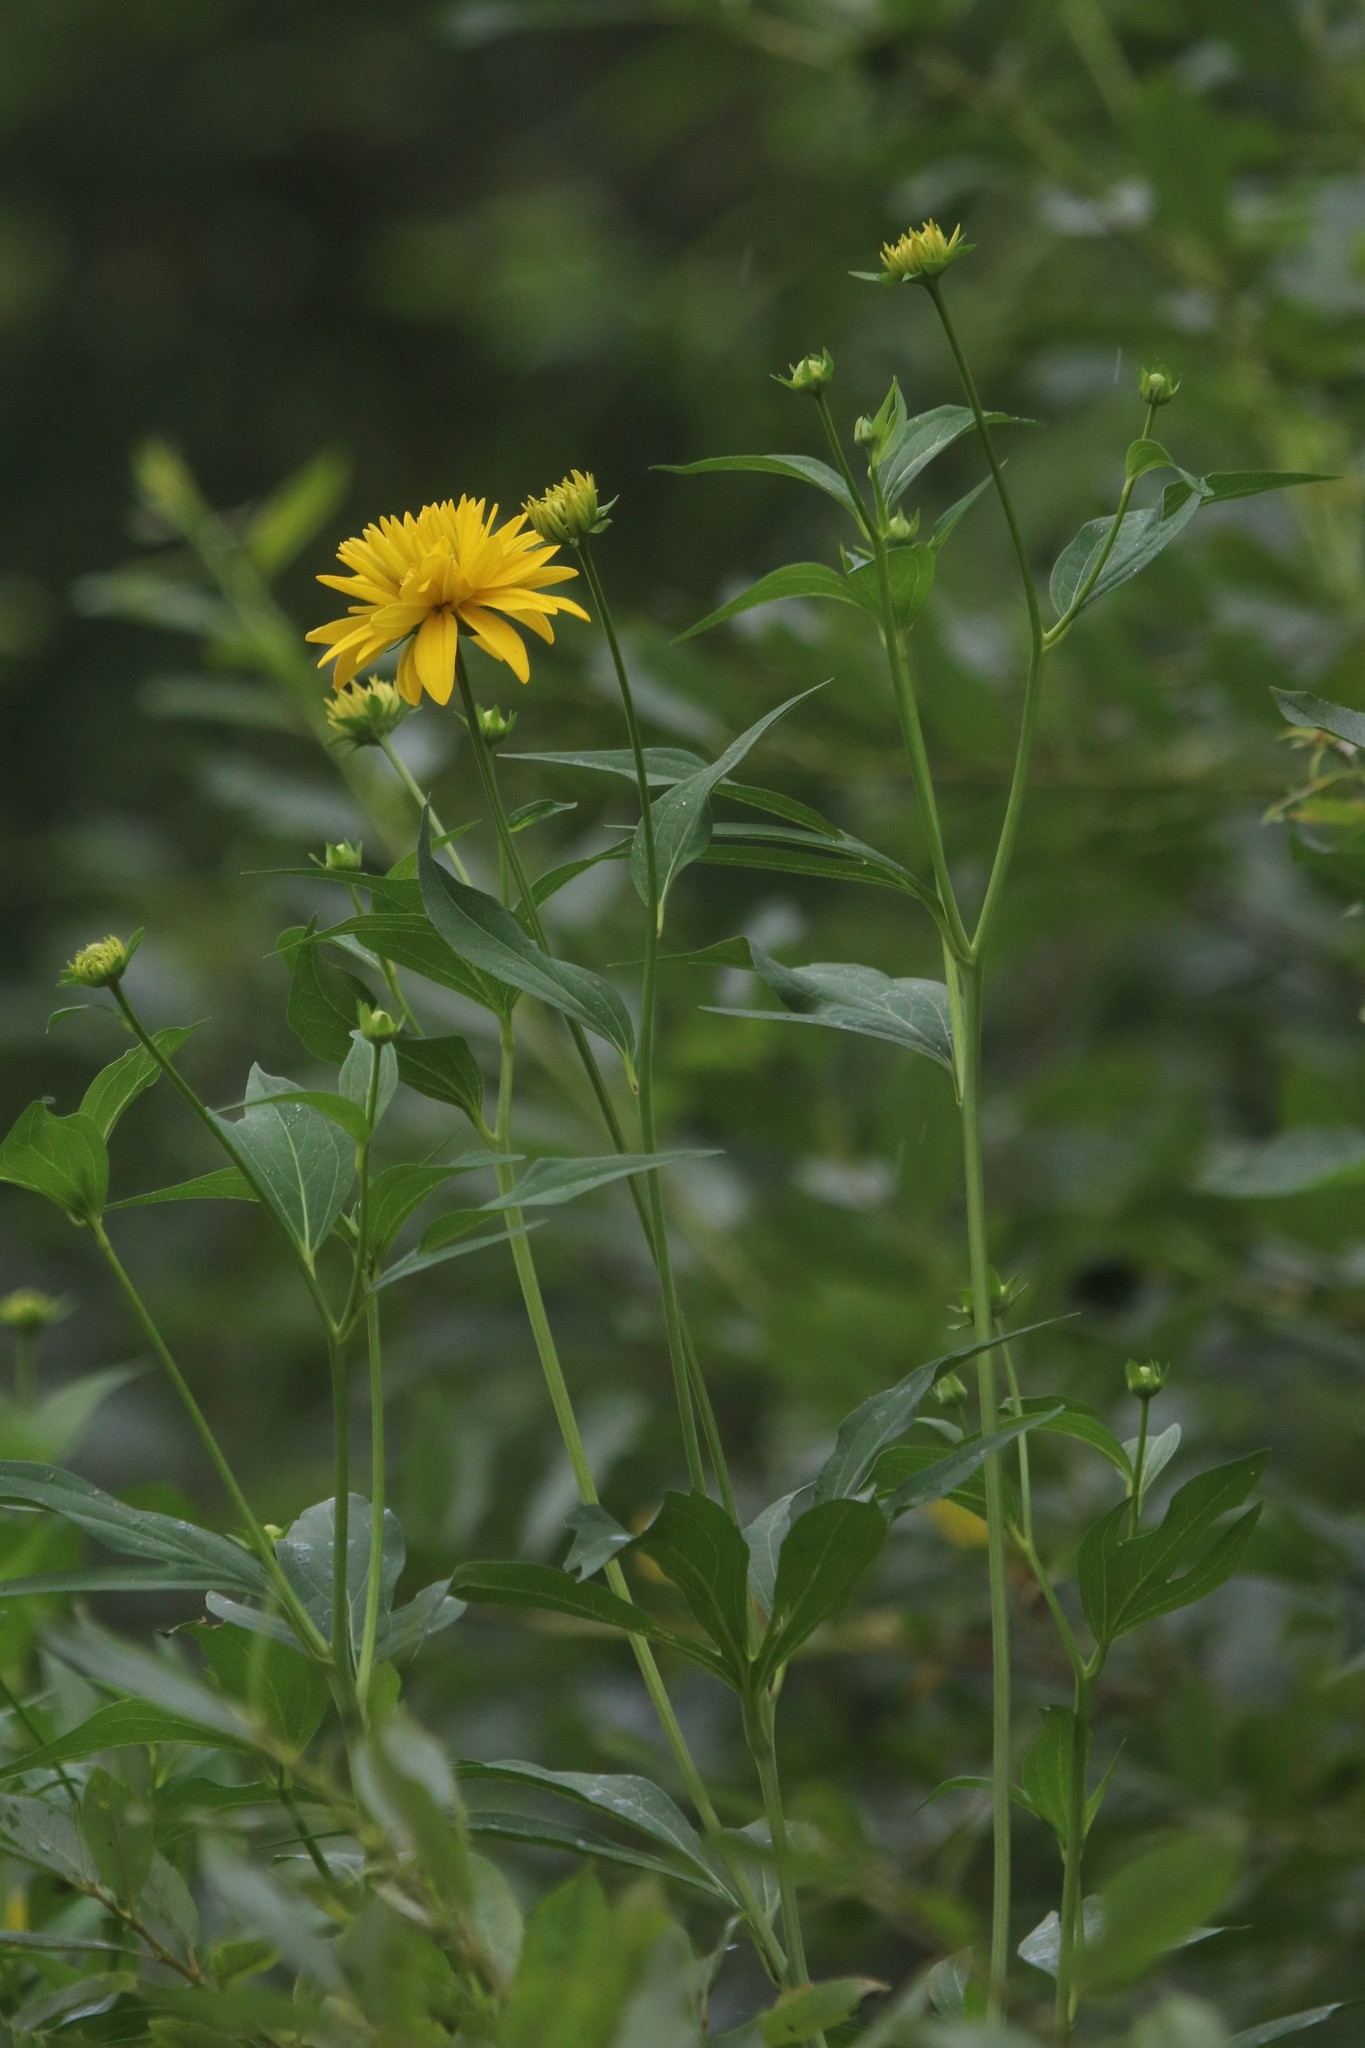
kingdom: Plantae
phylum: Tracheophyta
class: Magnoliopsida
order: Asterales
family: Asteraceae
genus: Rudbeckia
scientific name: Rudbeckia laciniata
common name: Coneflower
